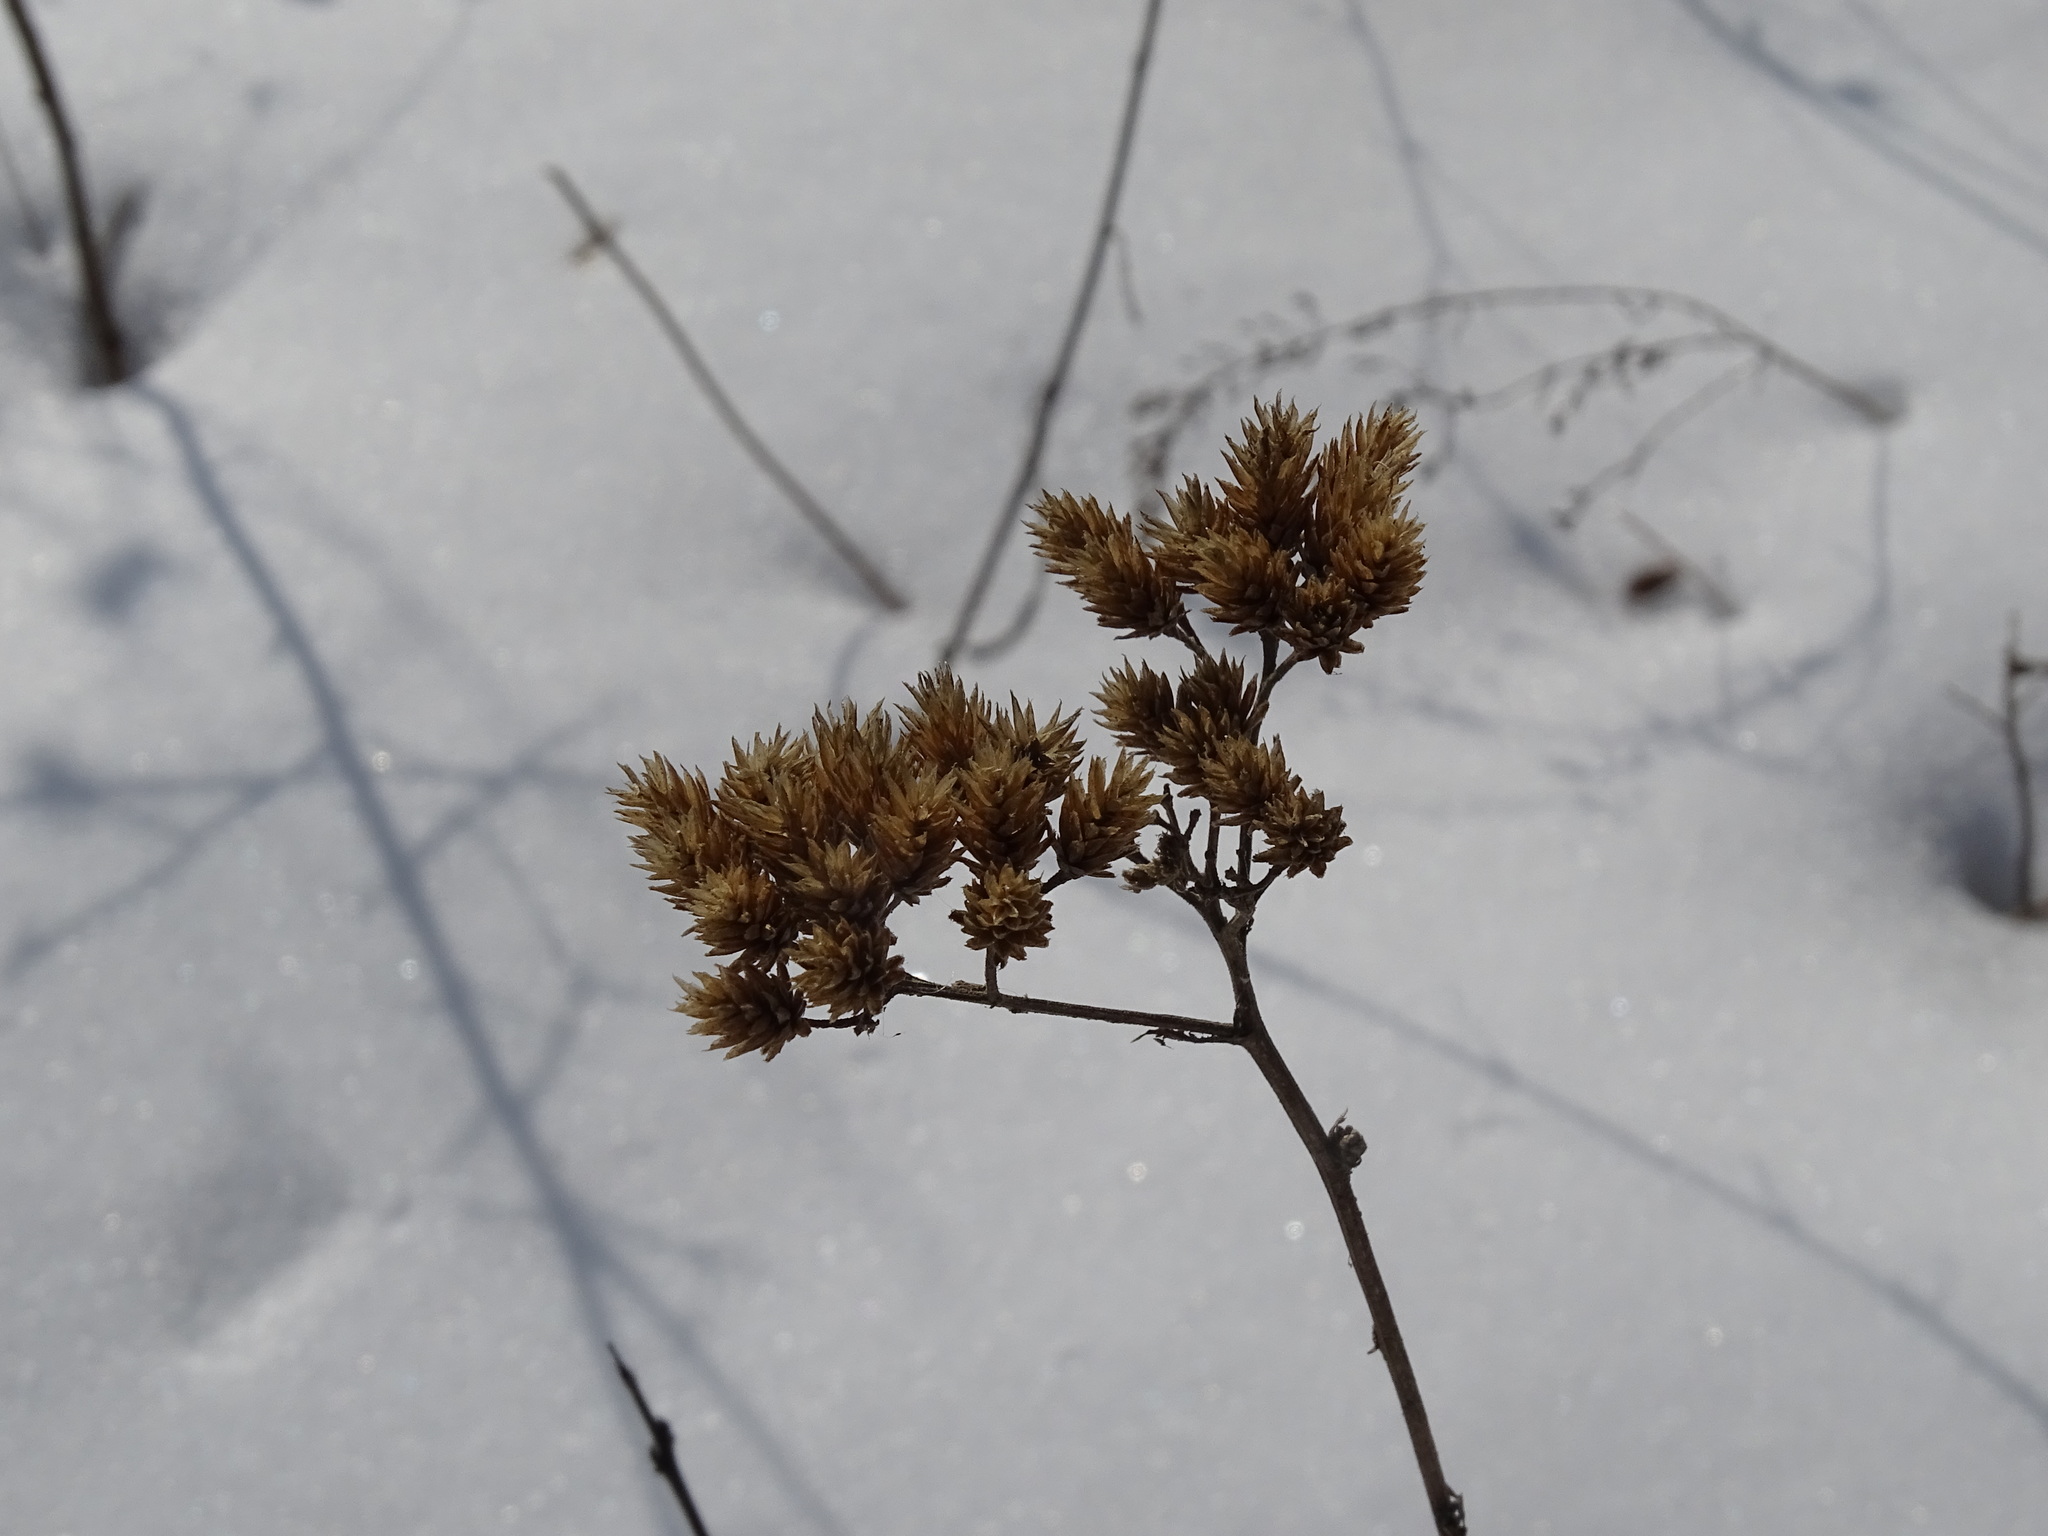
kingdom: Plantae
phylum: Tracheophyta
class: Magnoliopsida
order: Asterales
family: Asteraceae
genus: Achillea
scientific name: Achillea millefolium
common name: Yarrow
